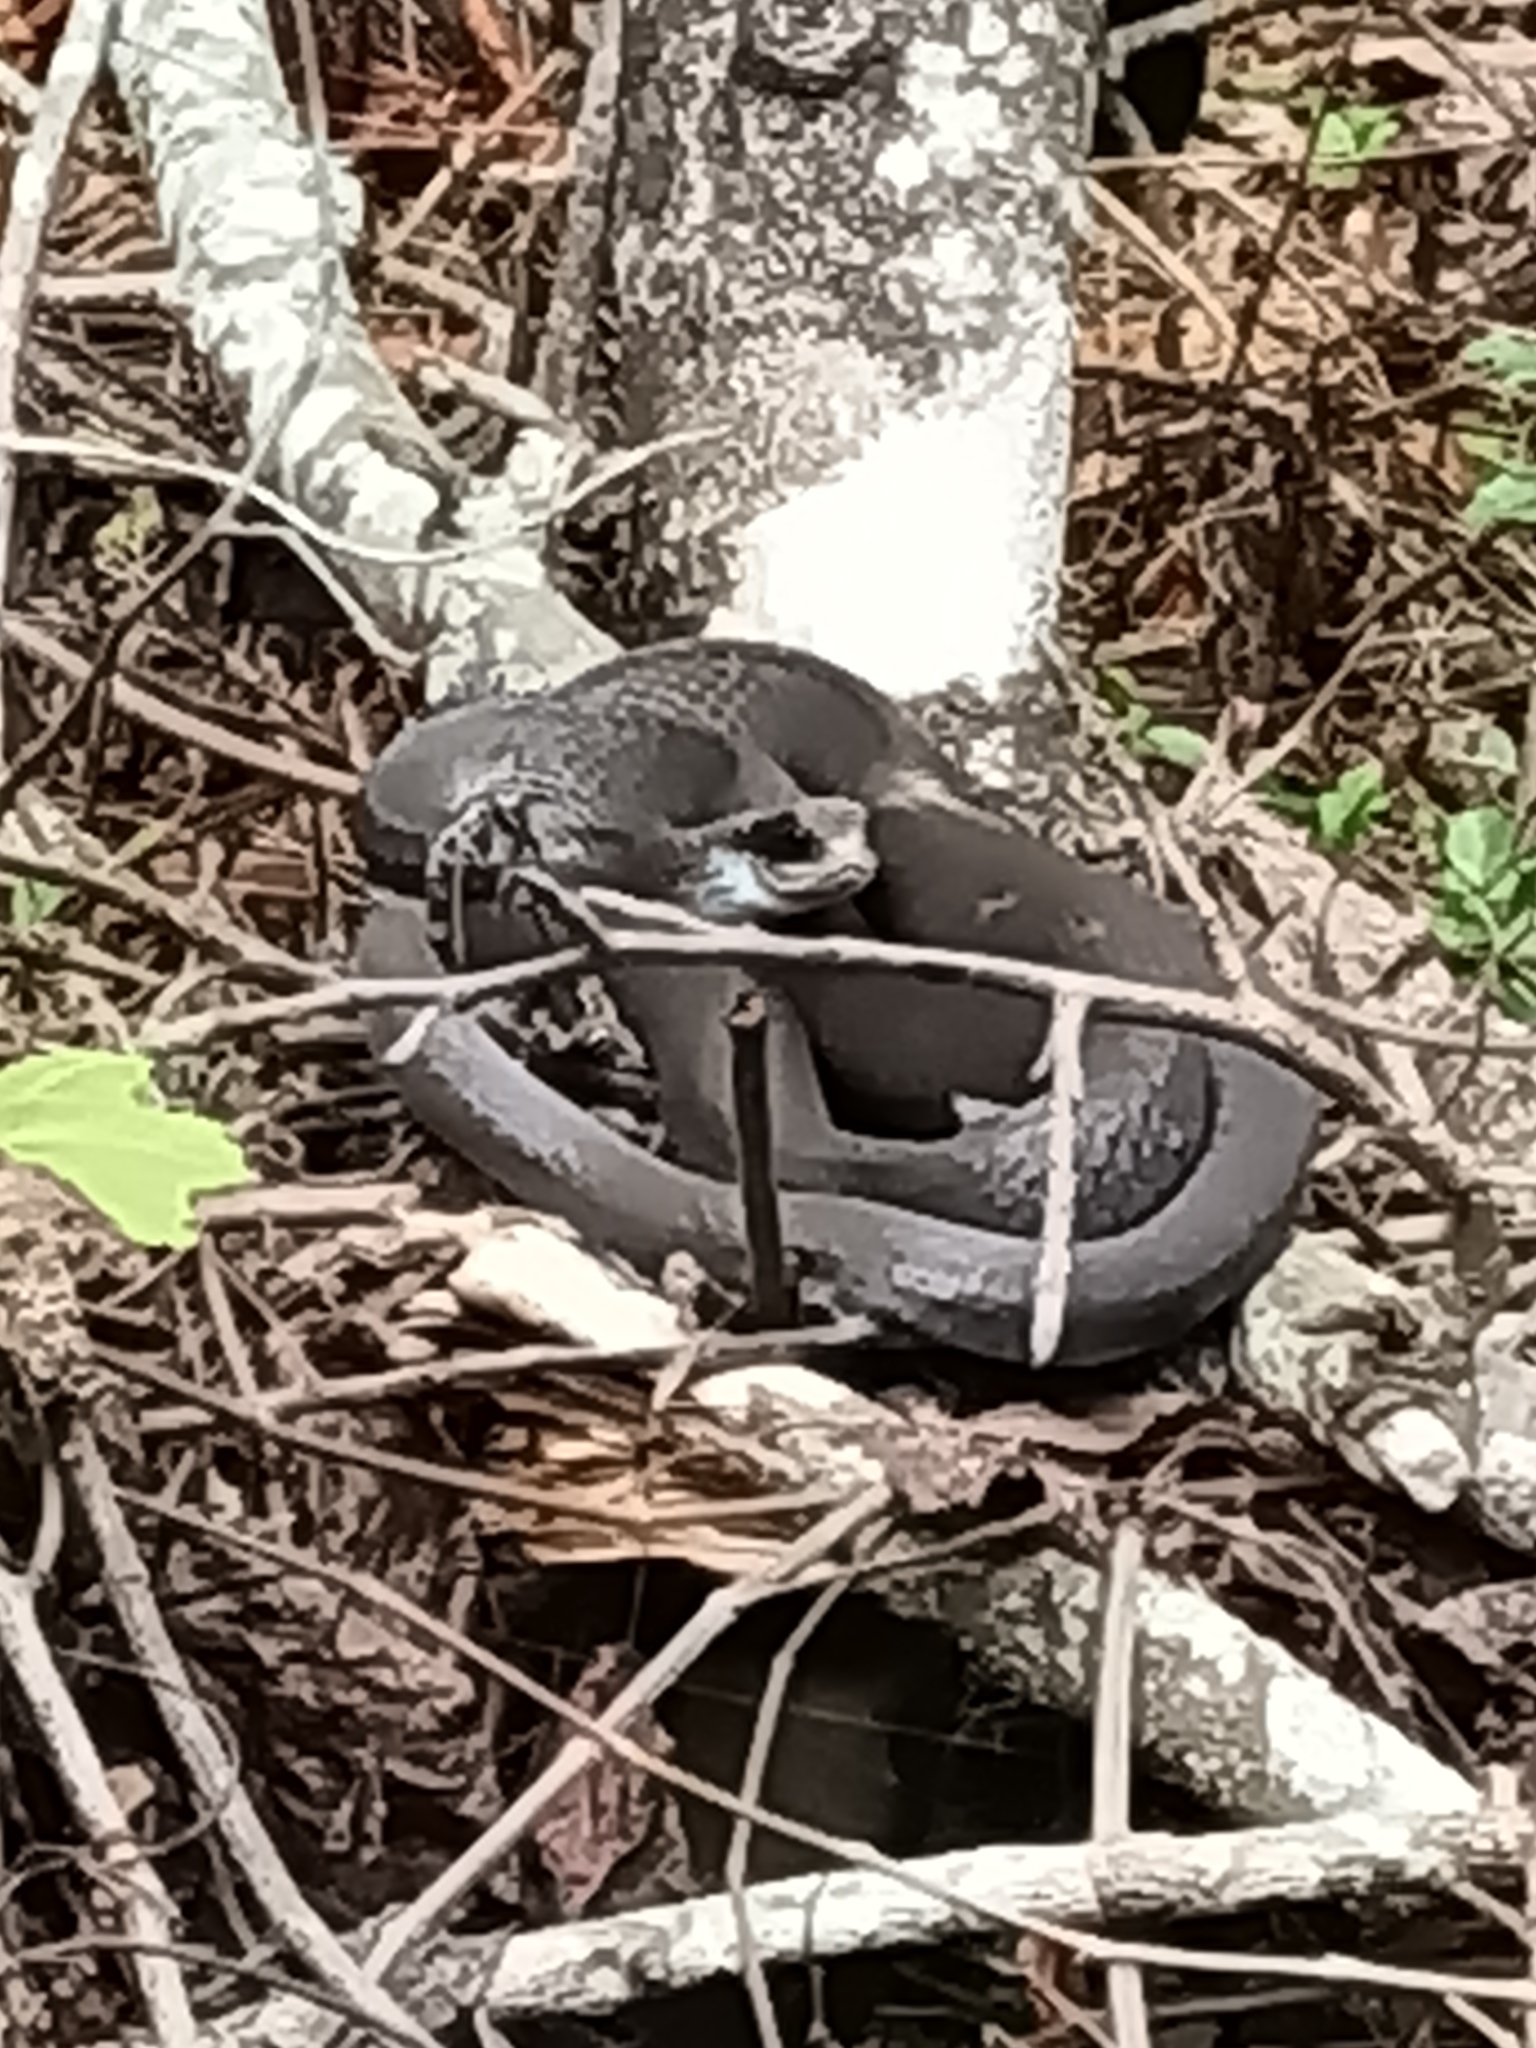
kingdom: Animalia
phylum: Chordata
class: Squamata
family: Colubridae
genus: Coluber
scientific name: Coluber constrictor
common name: Eastern racer
